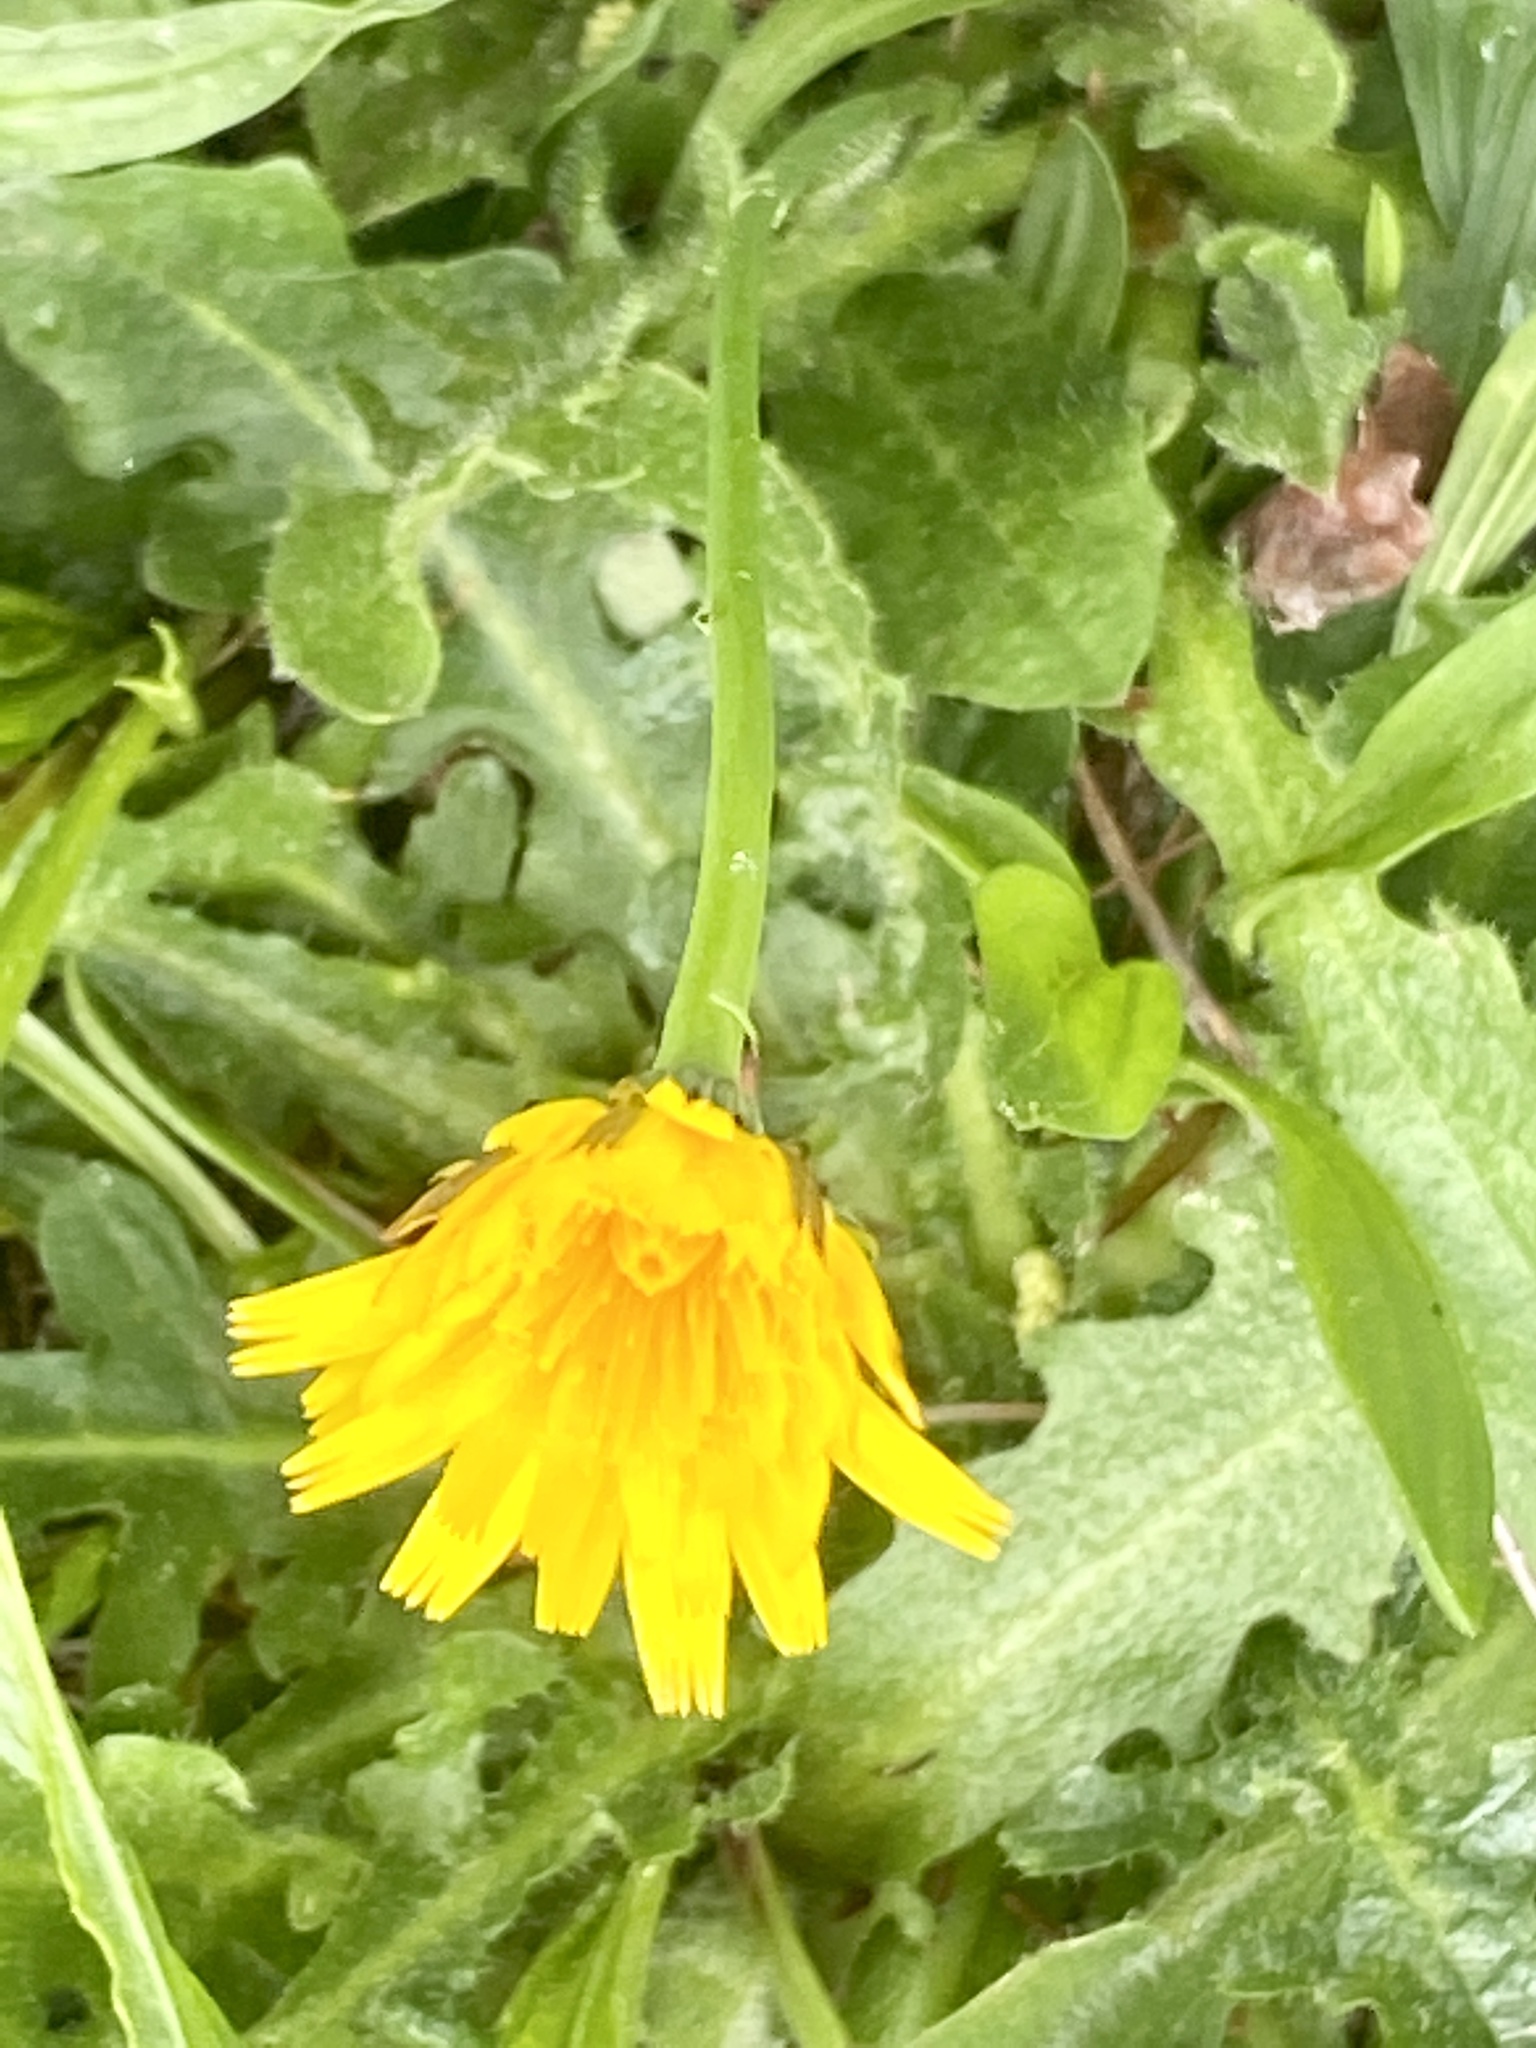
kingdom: Plantae
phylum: Tracheophyta
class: Magnoliopsida
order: Asterales
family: Asteraceae
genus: Hypochaeris
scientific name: Hypochaeris radicata
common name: Flatweed
